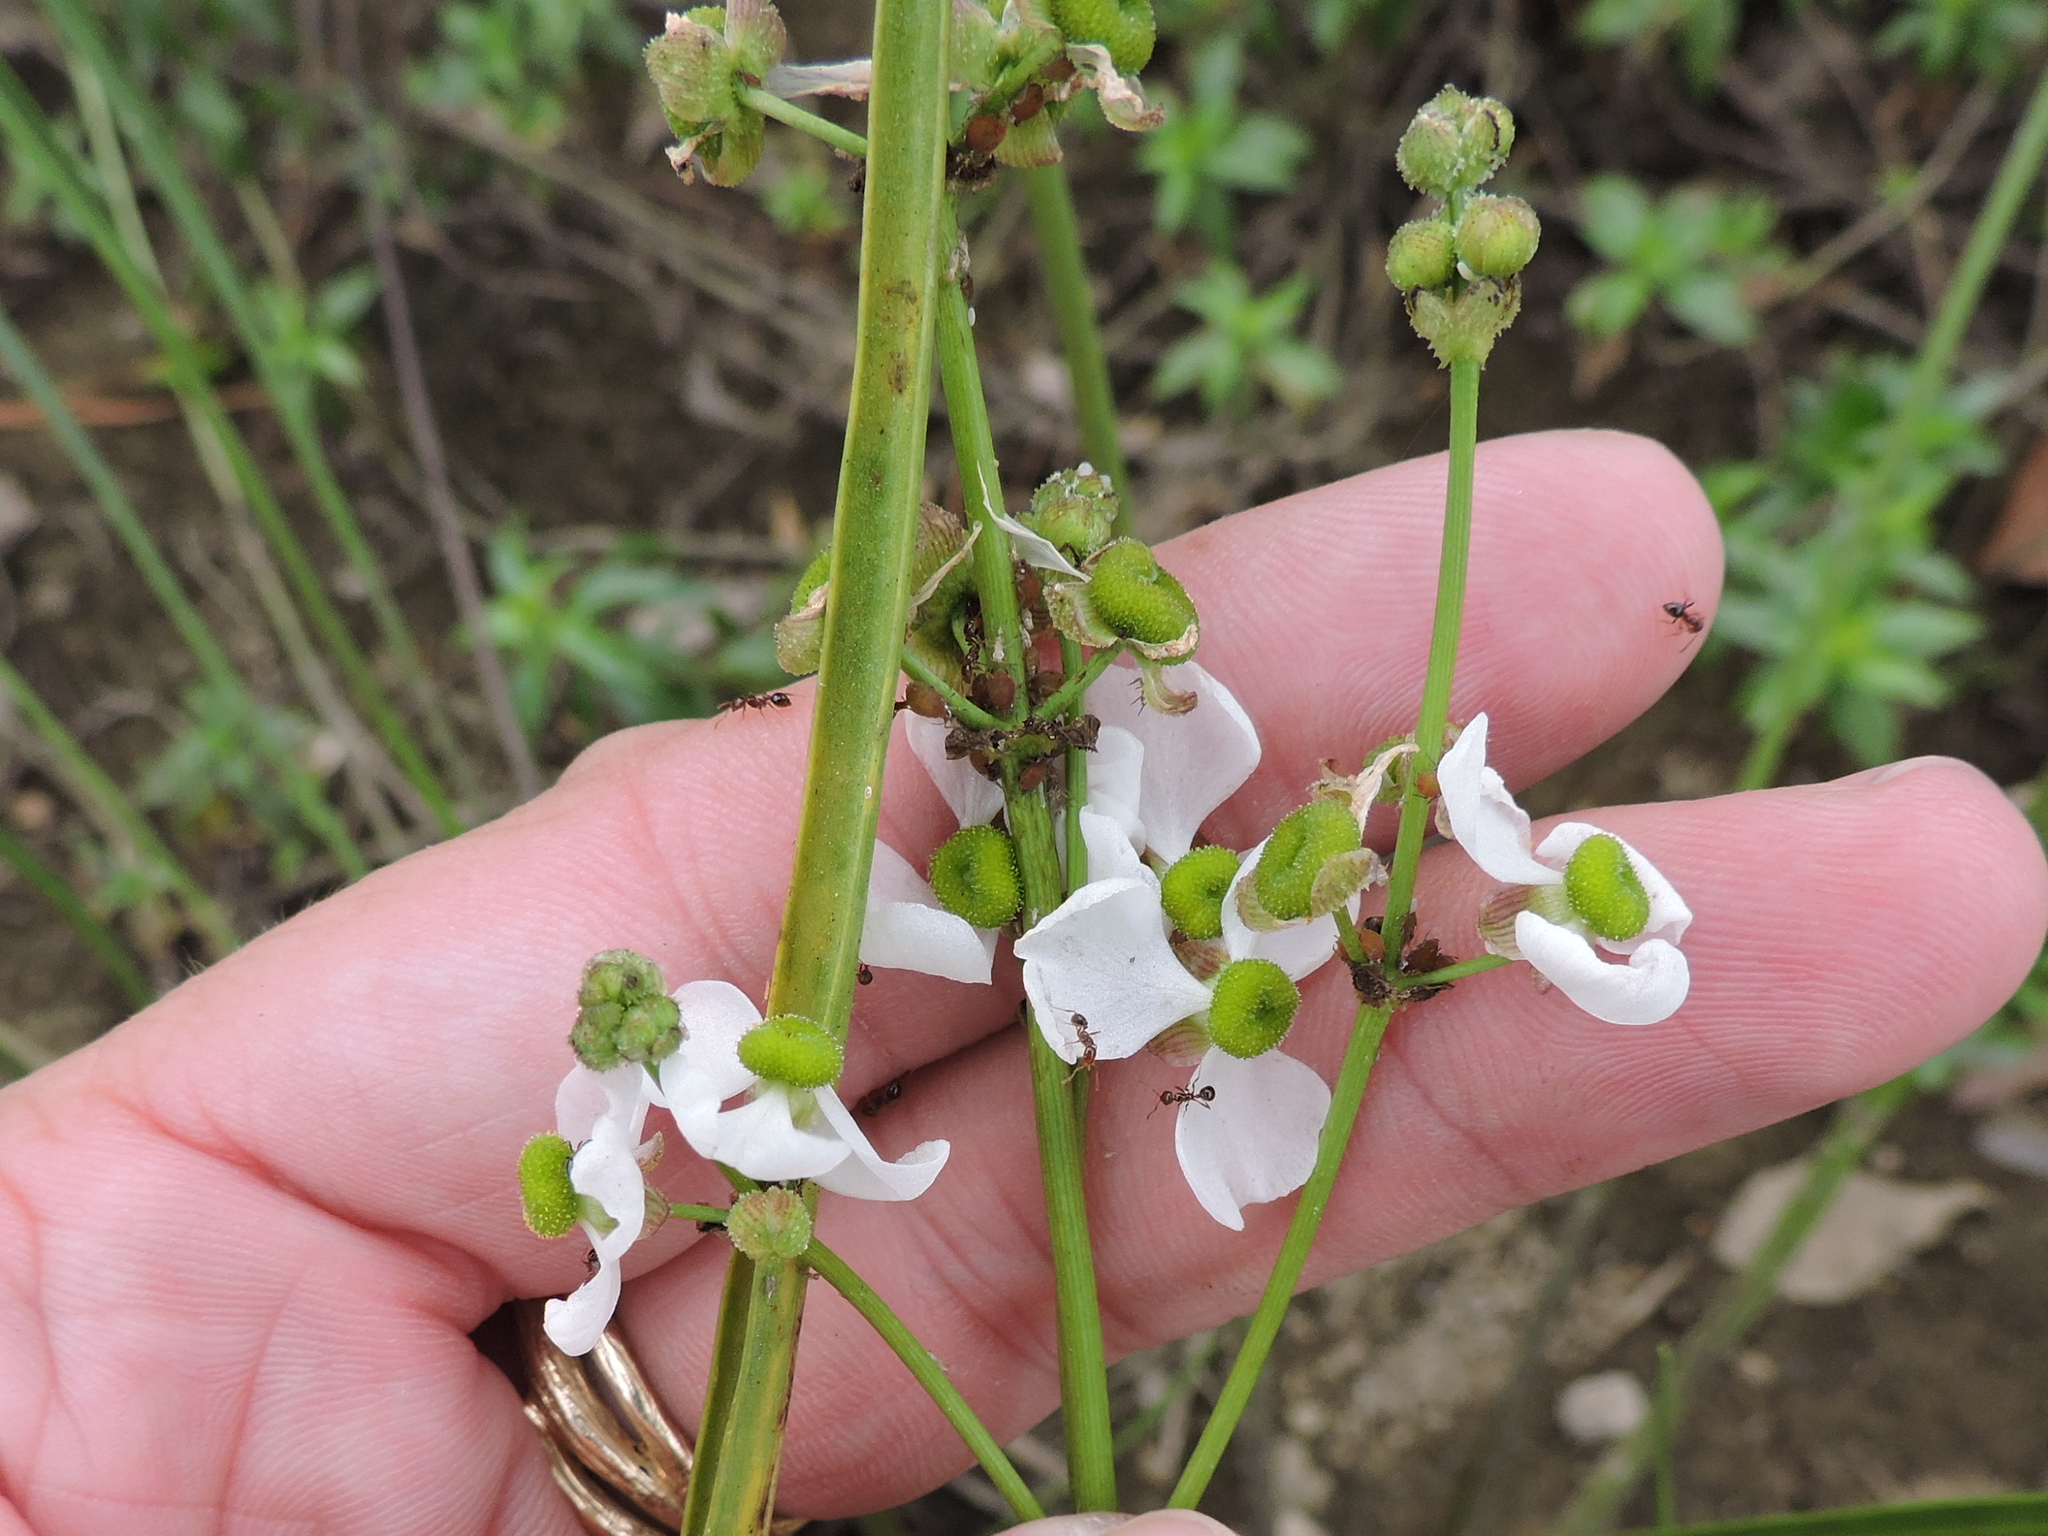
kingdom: Plantae
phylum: Tracheophyta
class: Liliopsida
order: Alismatales
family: Alismataceae
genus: Sagittaria
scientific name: Sagittaria papillosa
